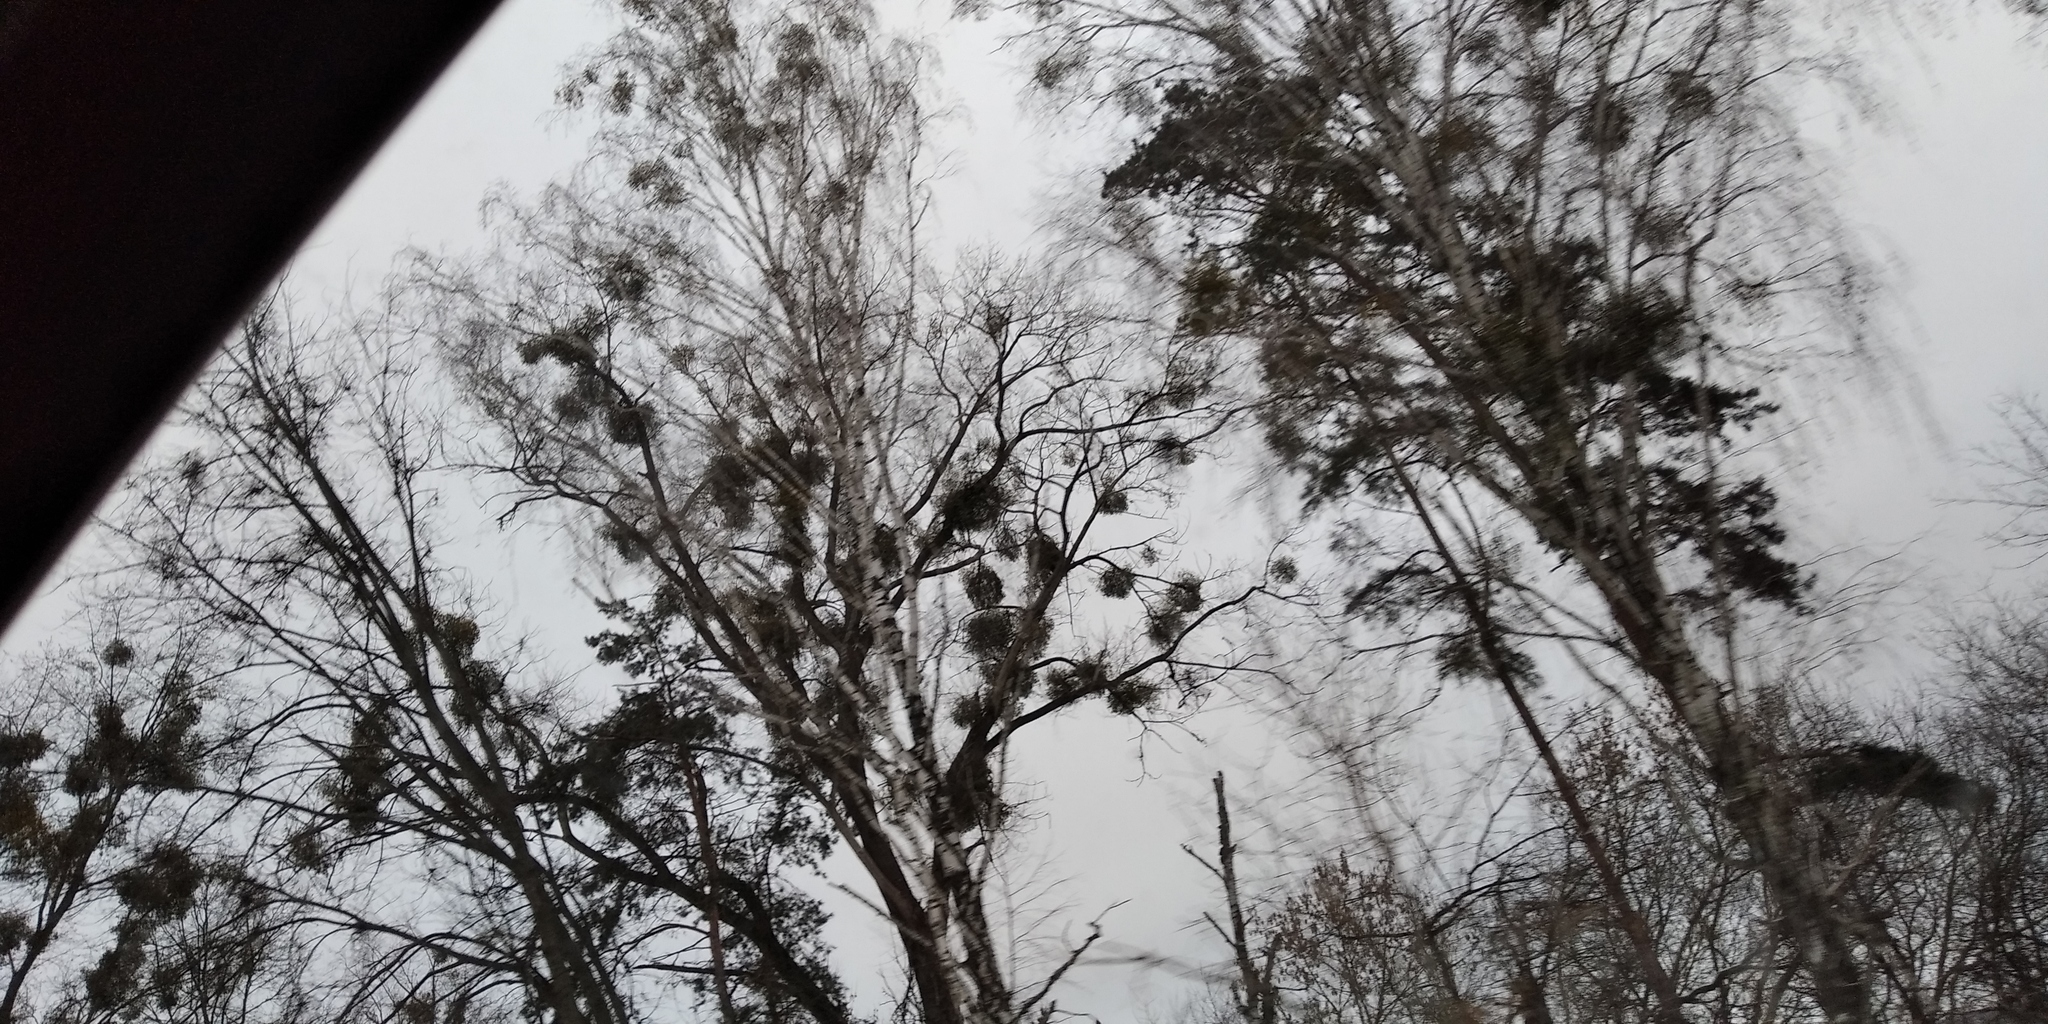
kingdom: Plantae
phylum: Tracheophyta
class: Magnoliopsida
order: Santalales
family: Viscaceae
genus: Viscum
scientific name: Viscum album
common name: Mistletoe
